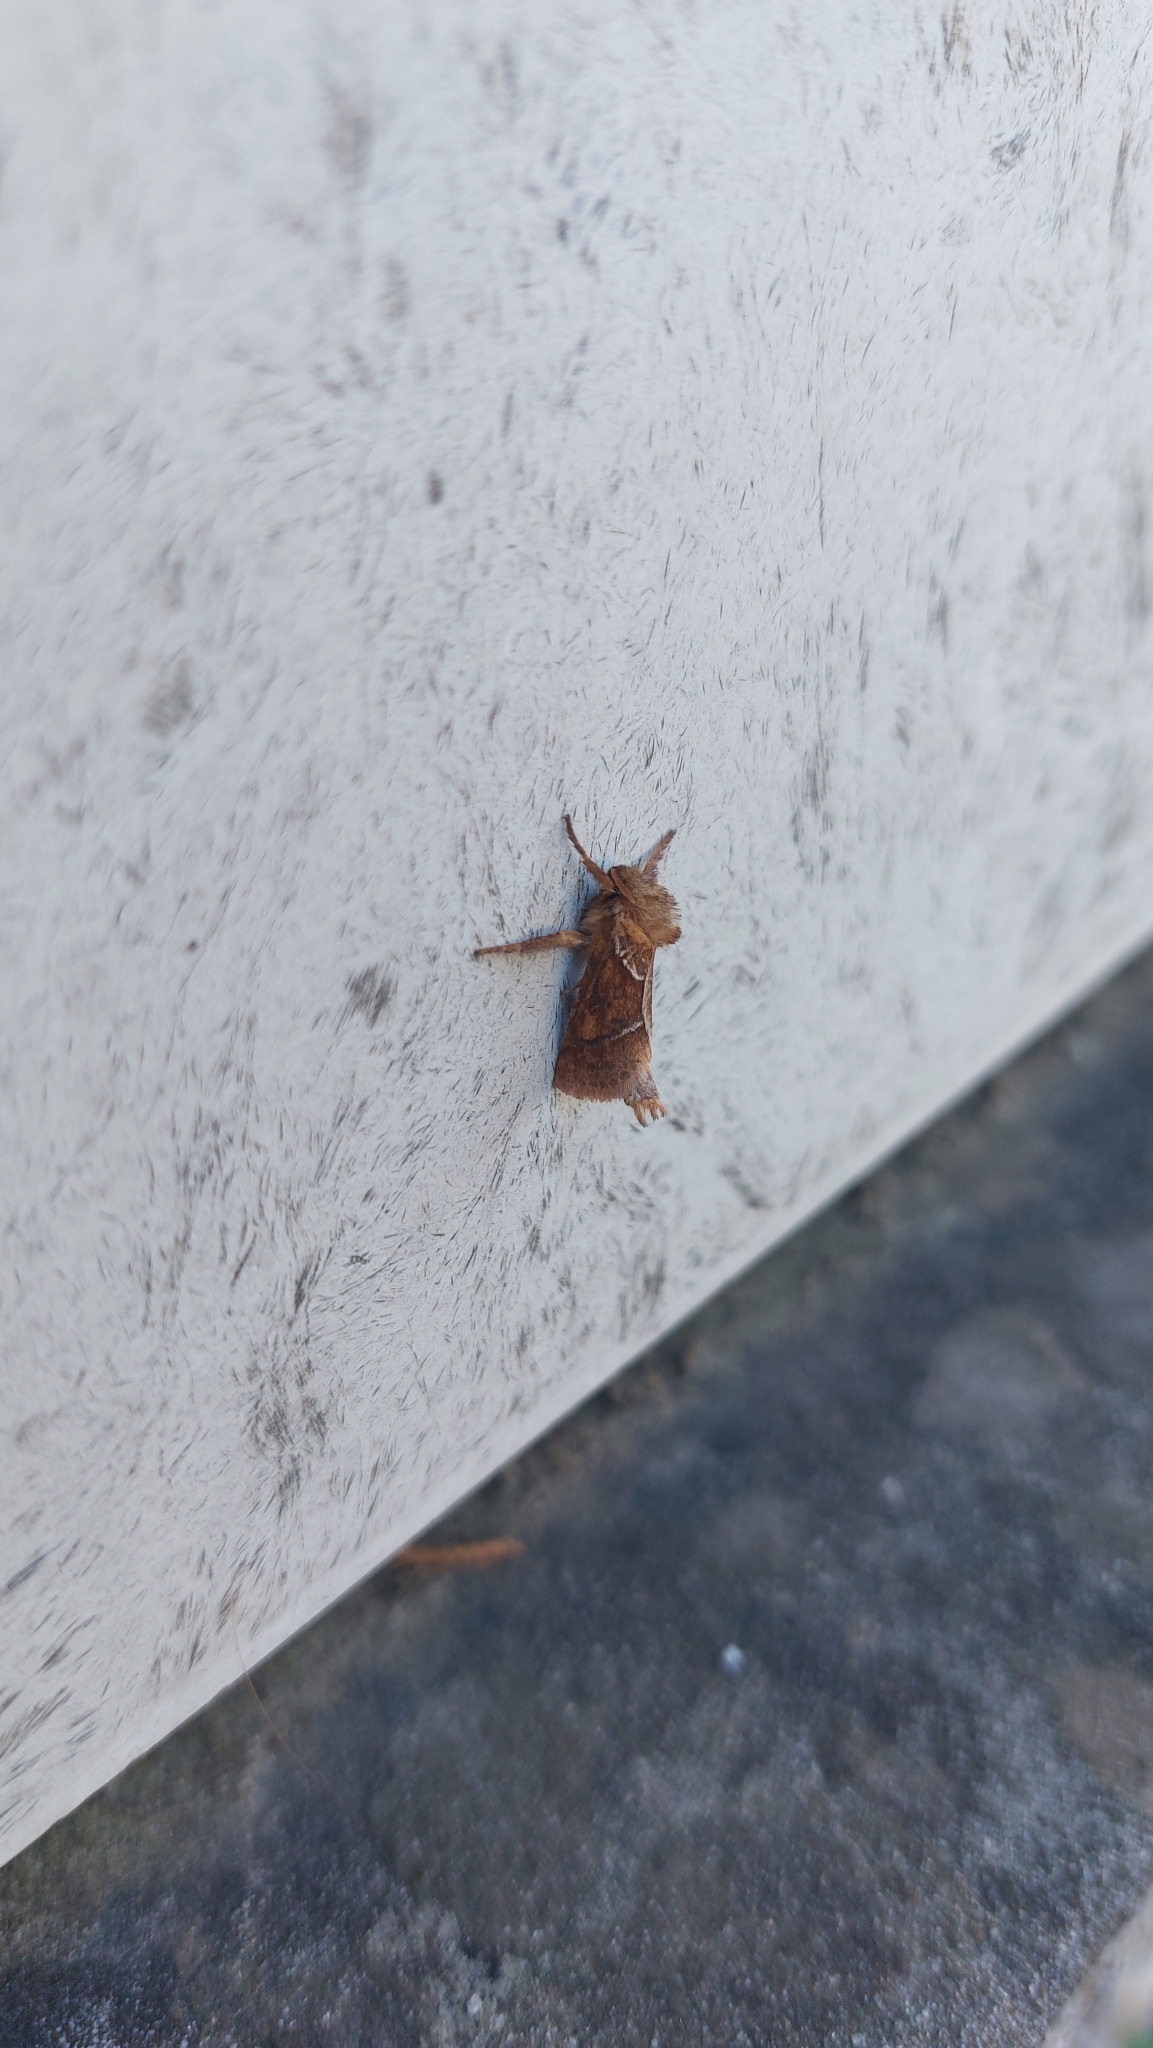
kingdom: Animalia
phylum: Arthropoda
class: Insecta
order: Lepidoptera
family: Hepialidae
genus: Triodia
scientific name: Triodia sylvina
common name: Orange swift
